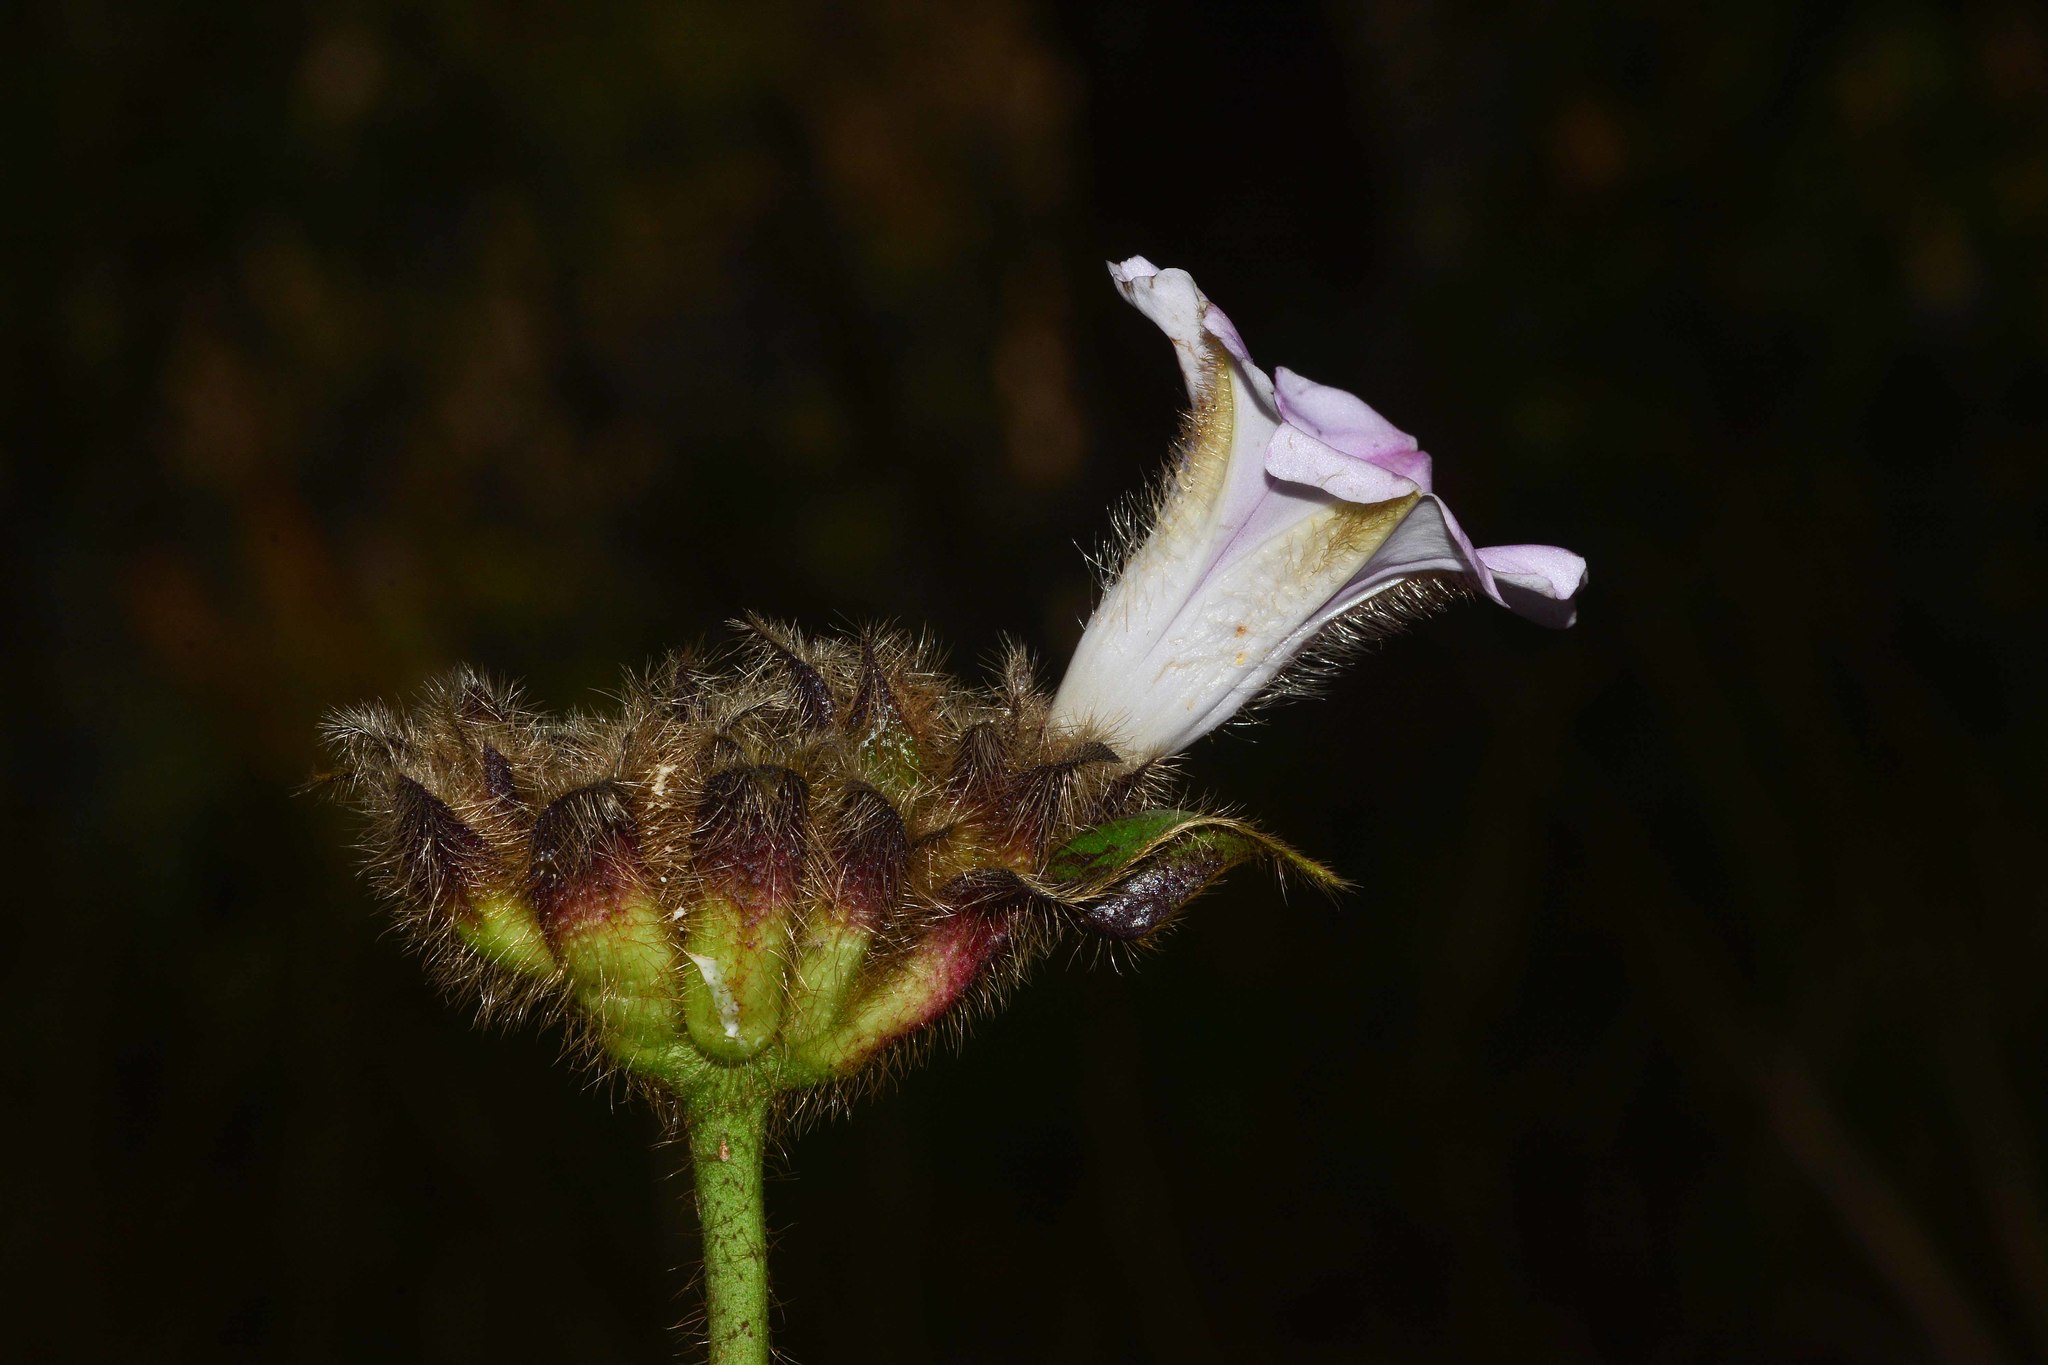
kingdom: Plantae
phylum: Tracheophyta
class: Magnoliopsida
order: Solanales
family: Convolvulaceae
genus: Argyreia
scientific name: Argyreia capitiformis
